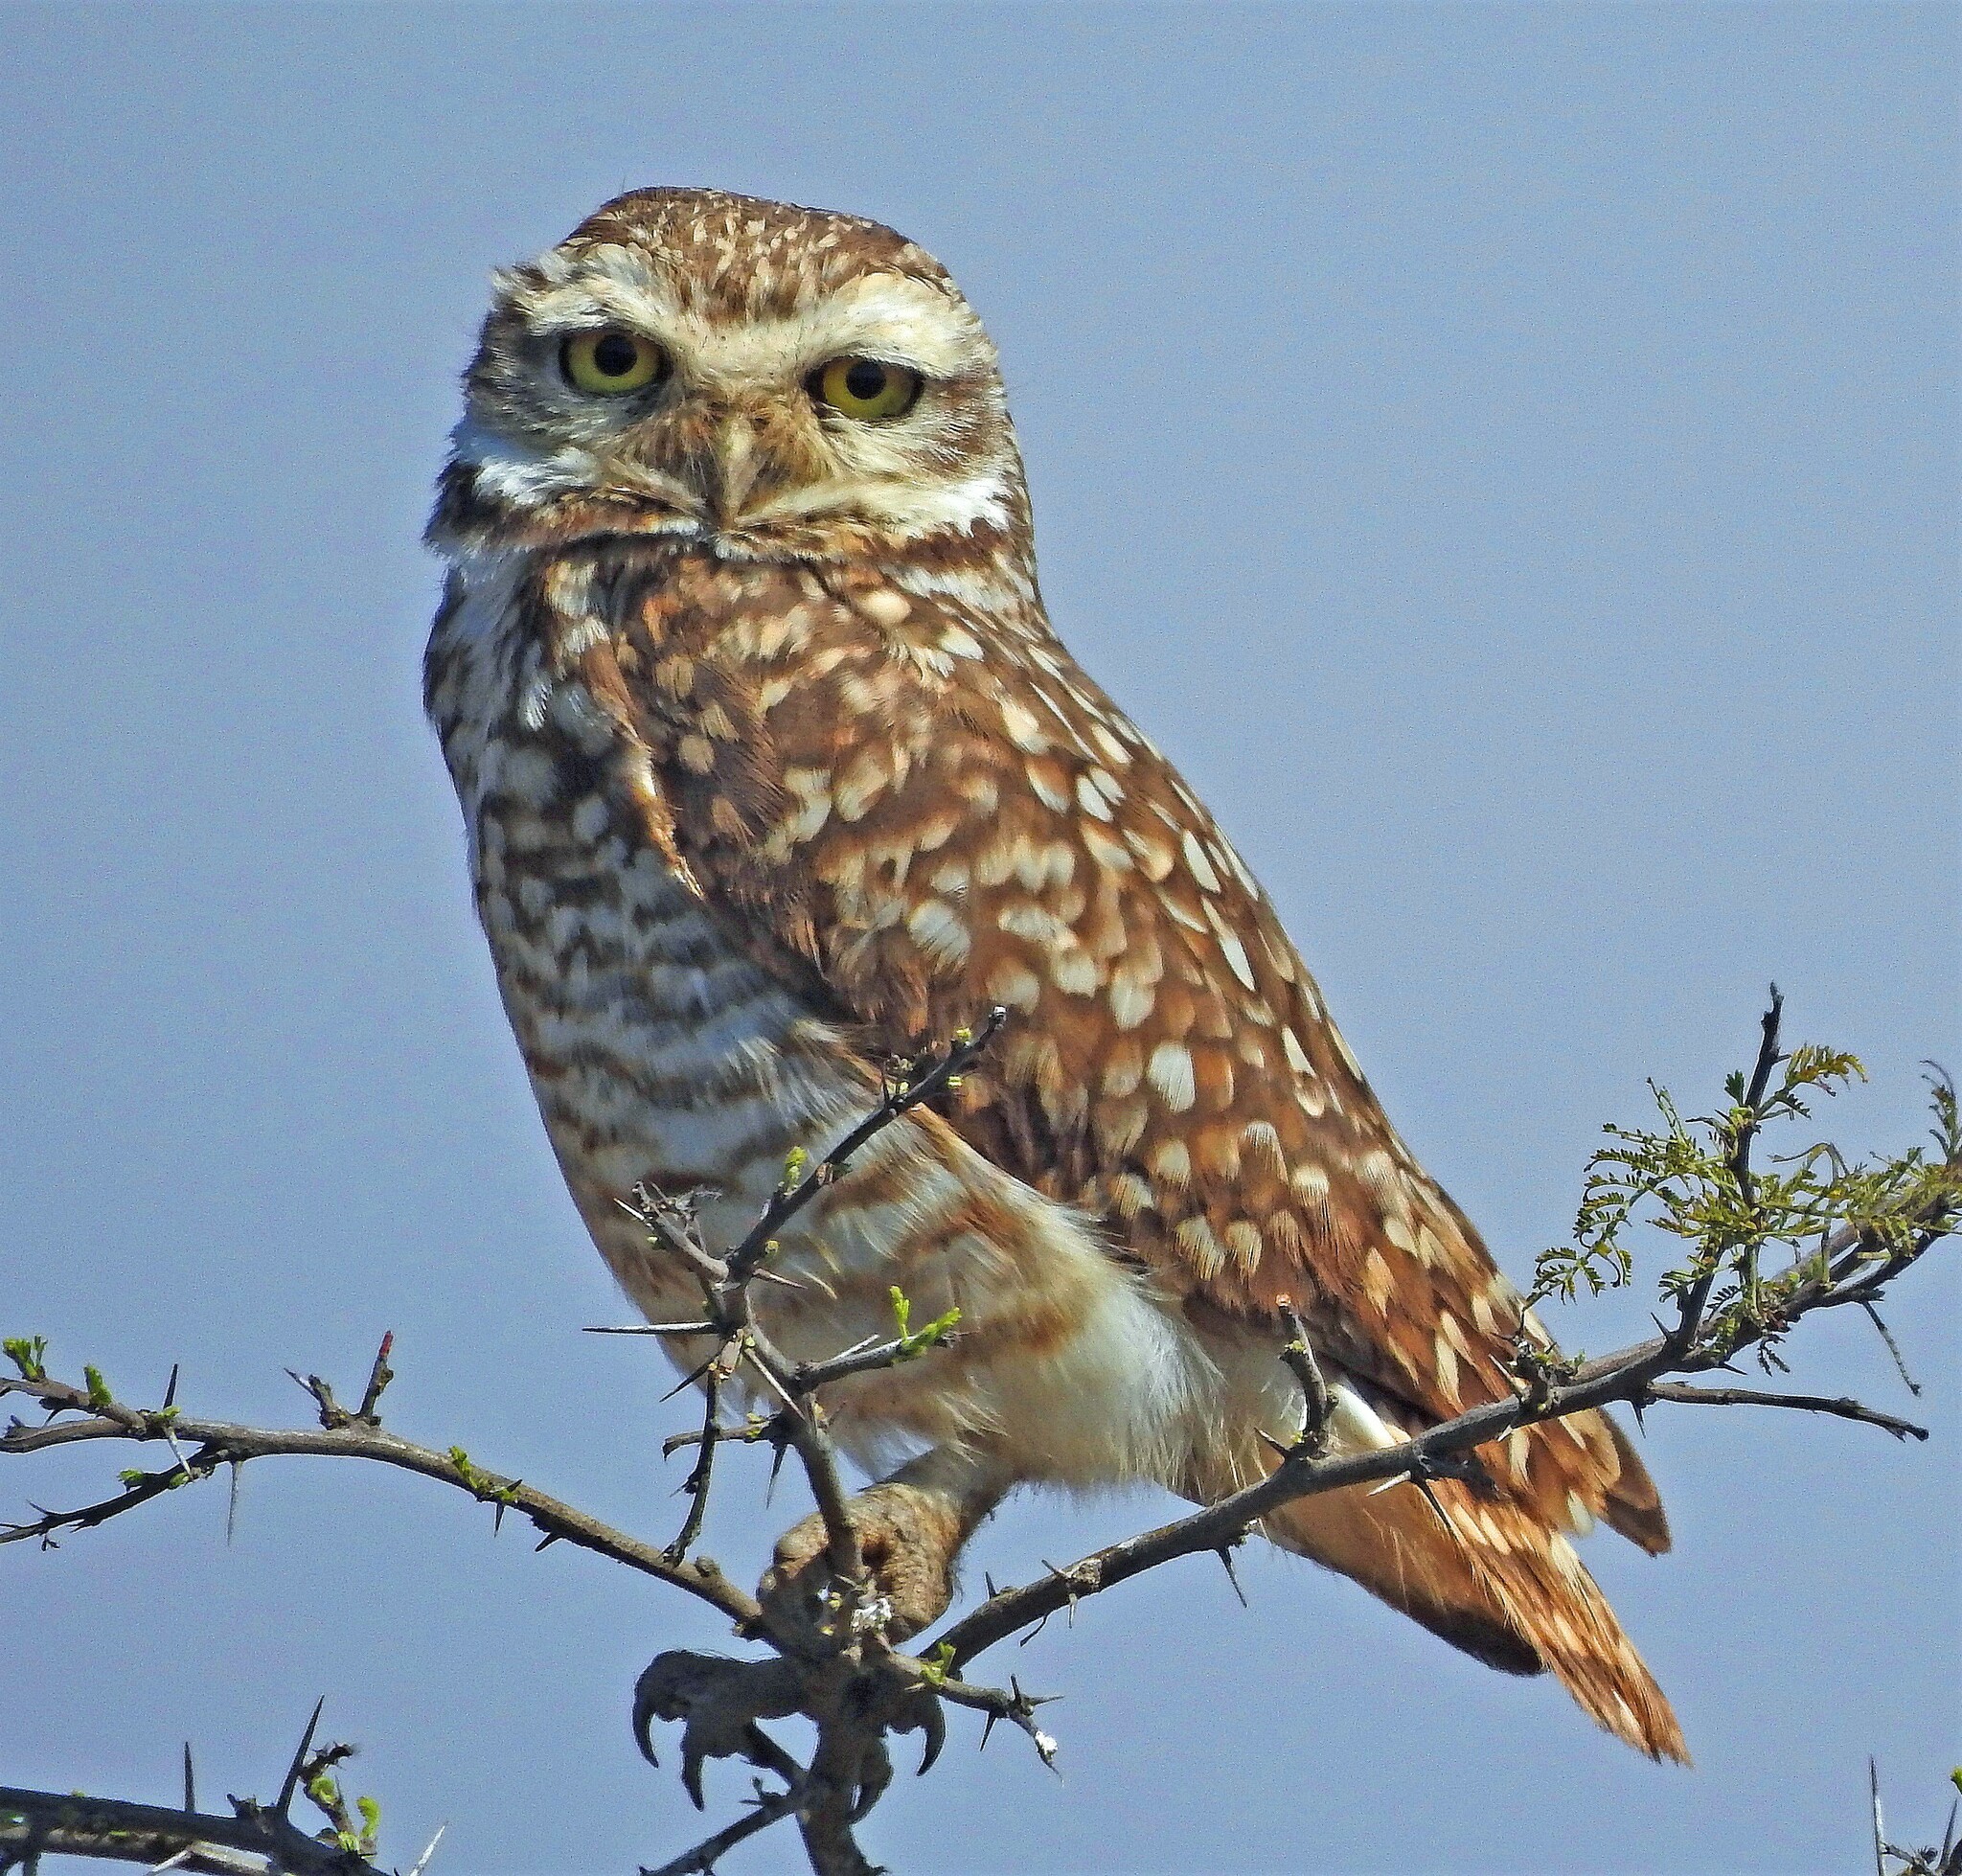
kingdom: Animalia
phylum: Chordata
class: Aves
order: Strigiformes
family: Strigidae
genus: Athene
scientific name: Athene cunicularia
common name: Burrowing owl
